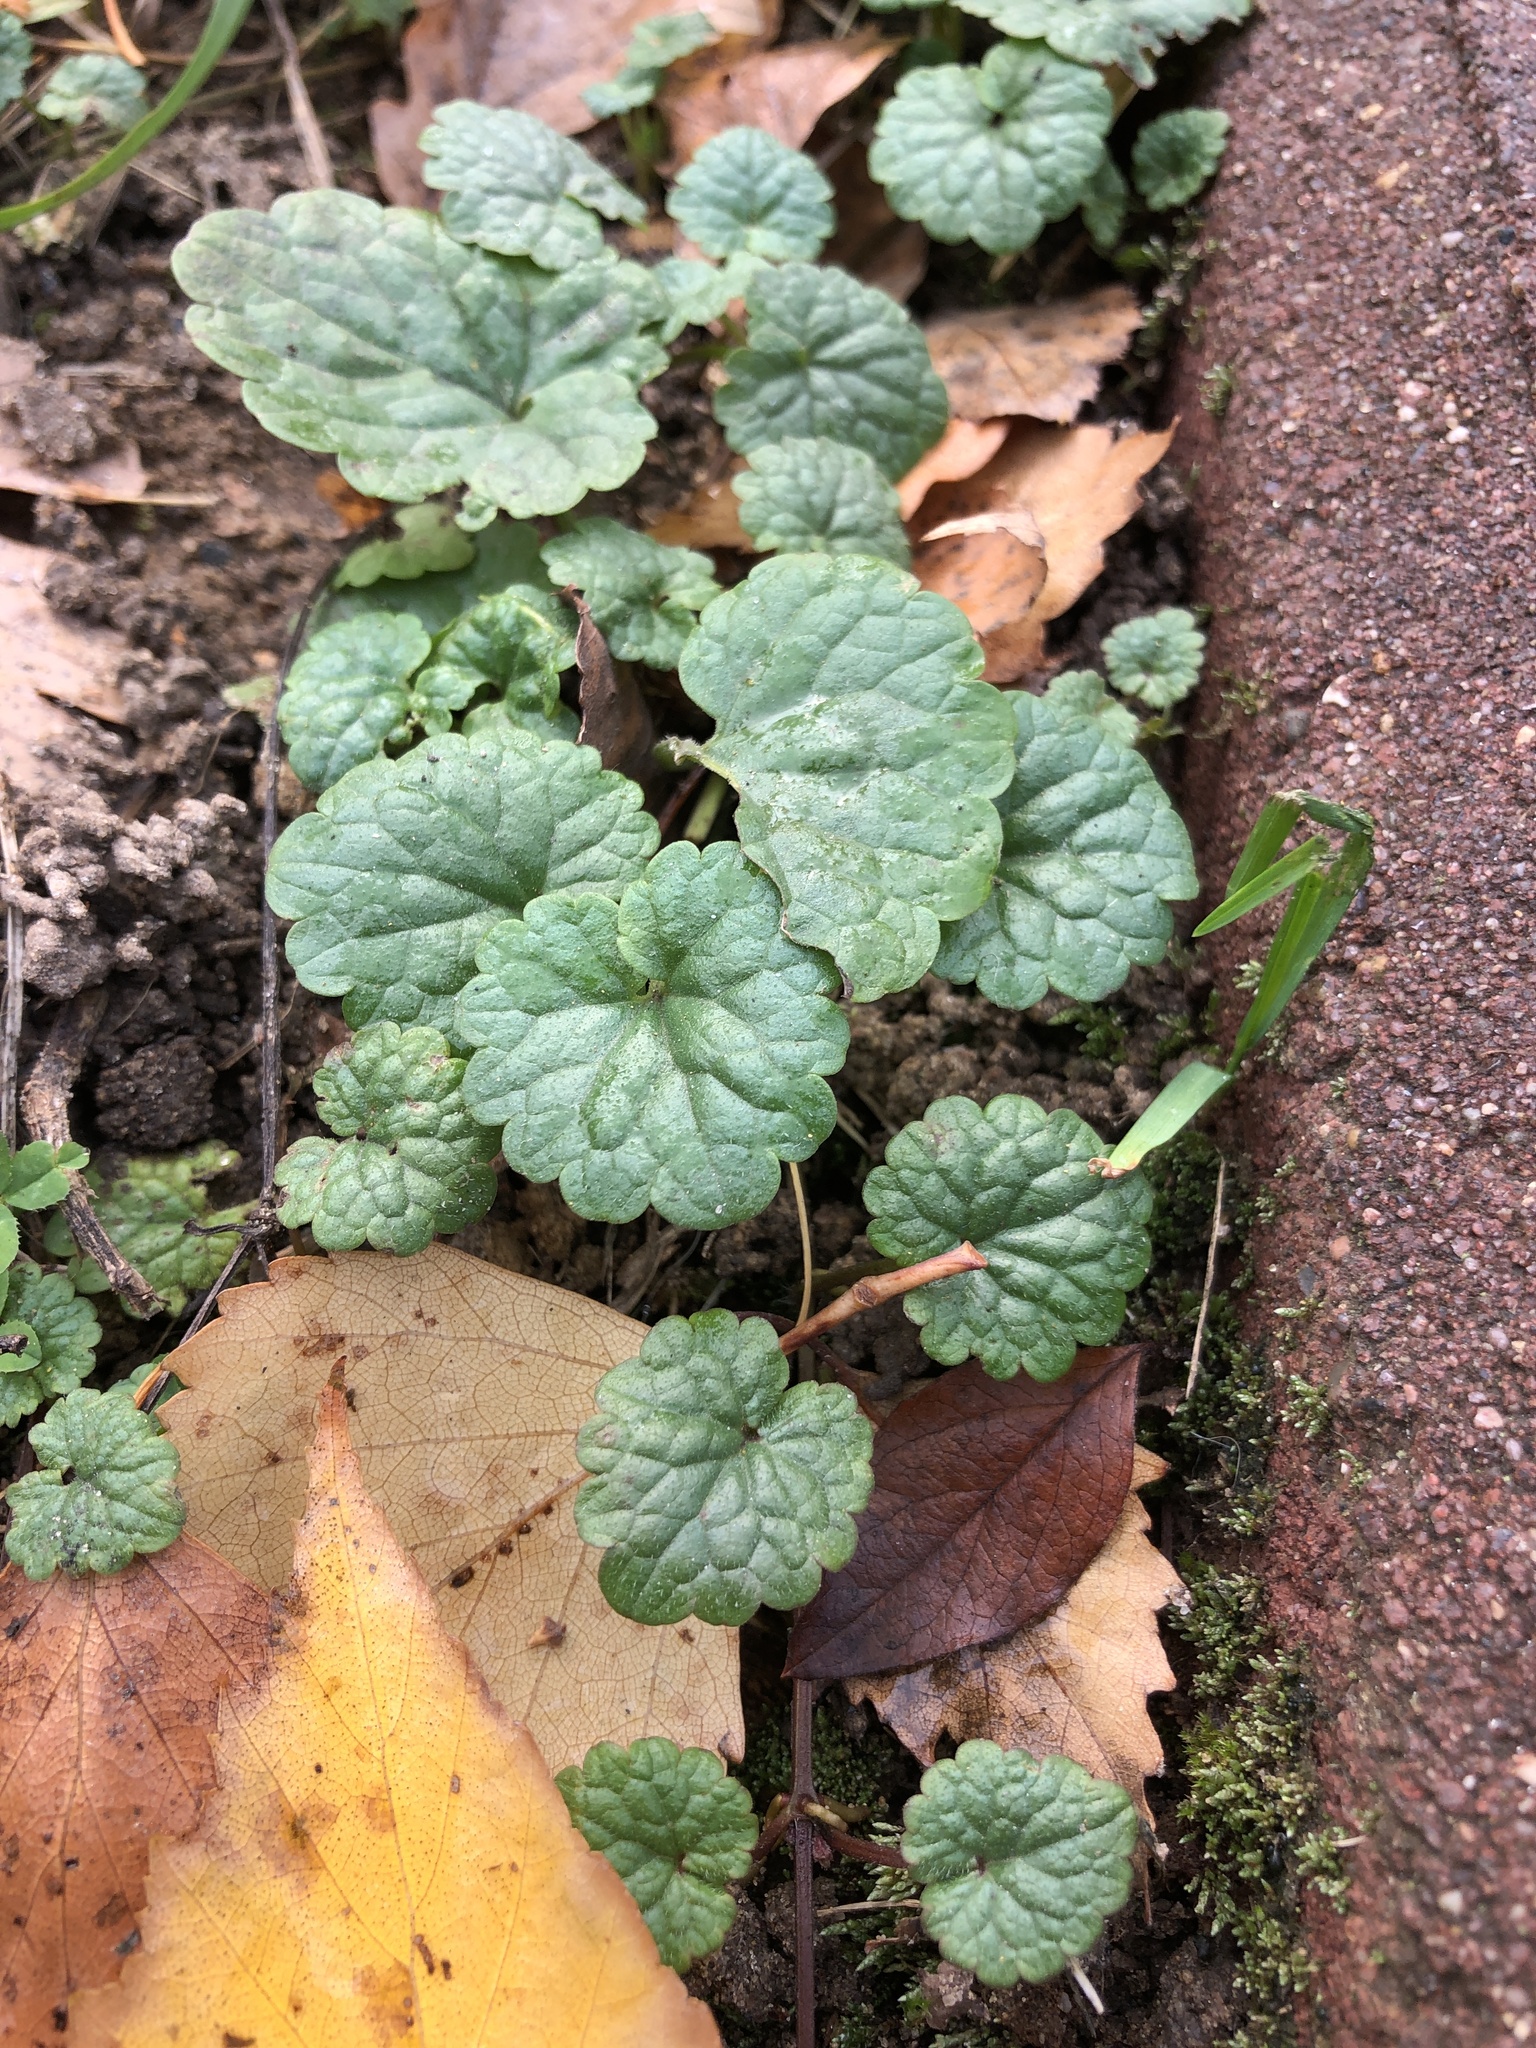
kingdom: Plantae
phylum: Tracheophyta
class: Magnoliopsida
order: Lamiales
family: Lamiaceae
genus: Glechoma
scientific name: Glechoma hederacea
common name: Ground ivy
